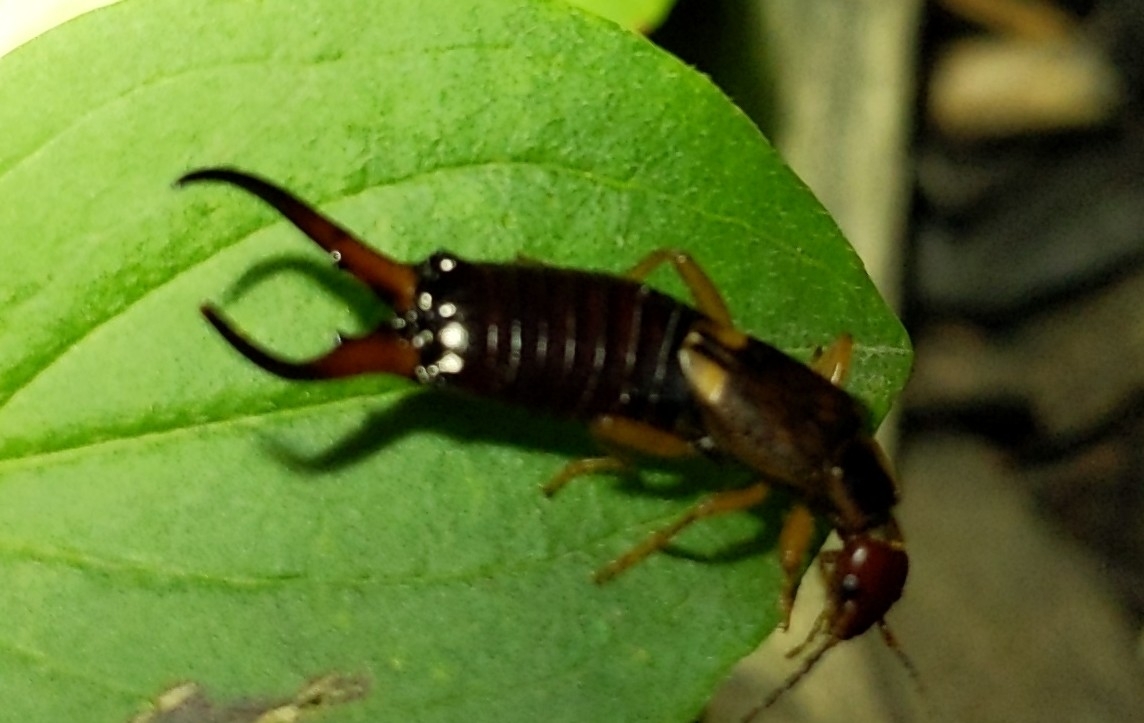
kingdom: Animalia
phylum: Arthropoda
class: Insecta
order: Dermaptera
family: Forficulidae
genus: Forficula
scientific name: Forficula
